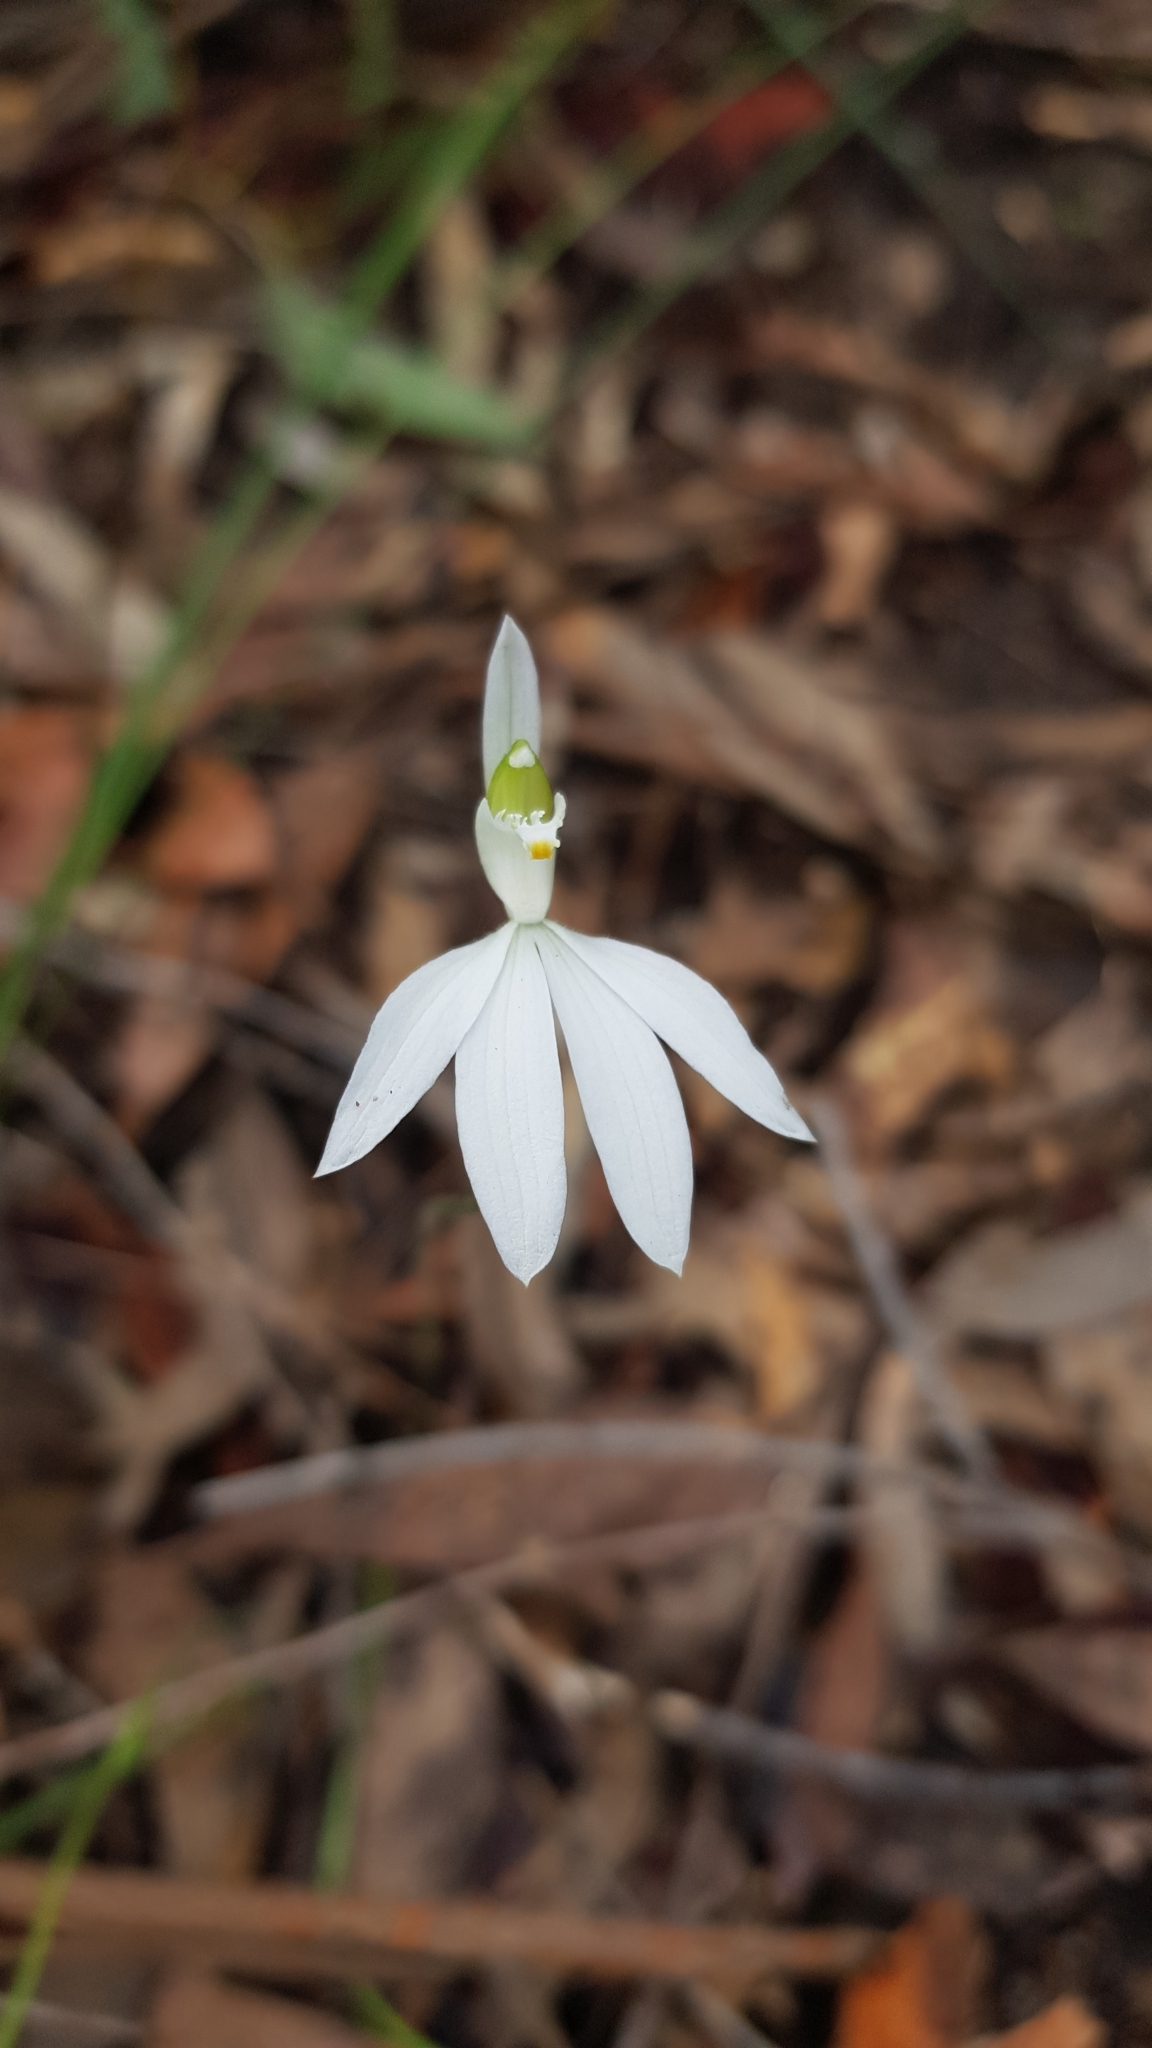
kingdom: Plantae
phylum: Tracheophyta
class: Liliopsida
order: Asparagales
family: Orchidaceae
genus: Caladenia
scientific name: Caladenia catenata
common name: White caladenia
